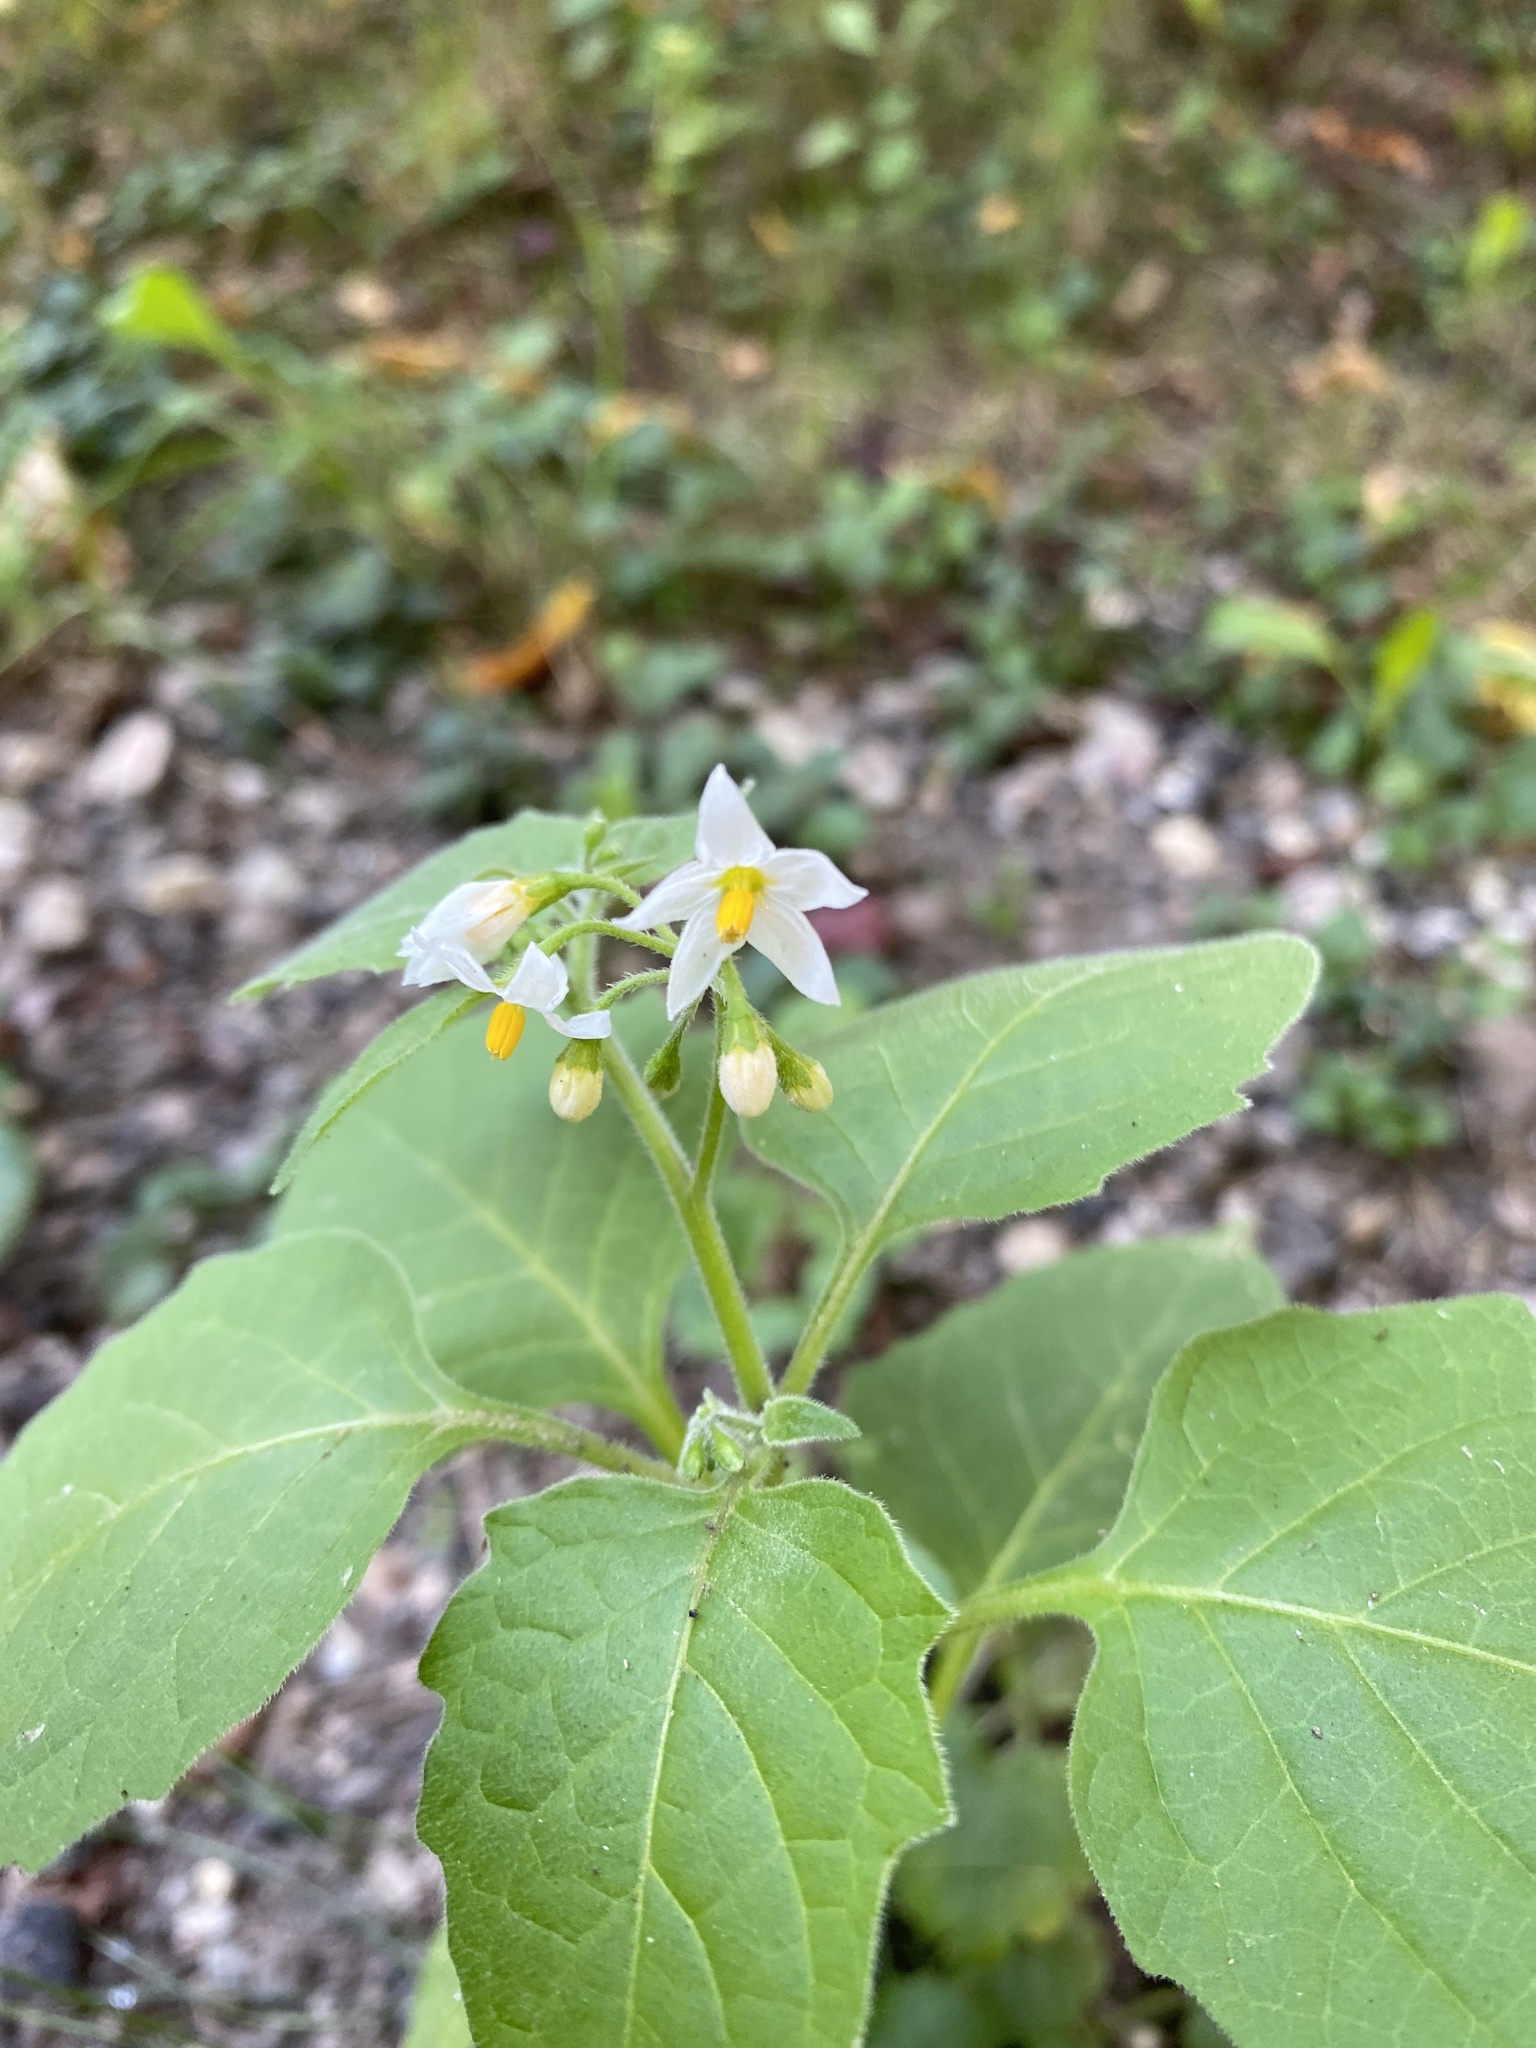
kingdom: Plantae
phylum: Tracheophyta
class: Magnoliopsida
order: Solanales
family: Solanaceae
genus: Solanum
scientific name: Solanum nigrum
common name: Black nightshade
